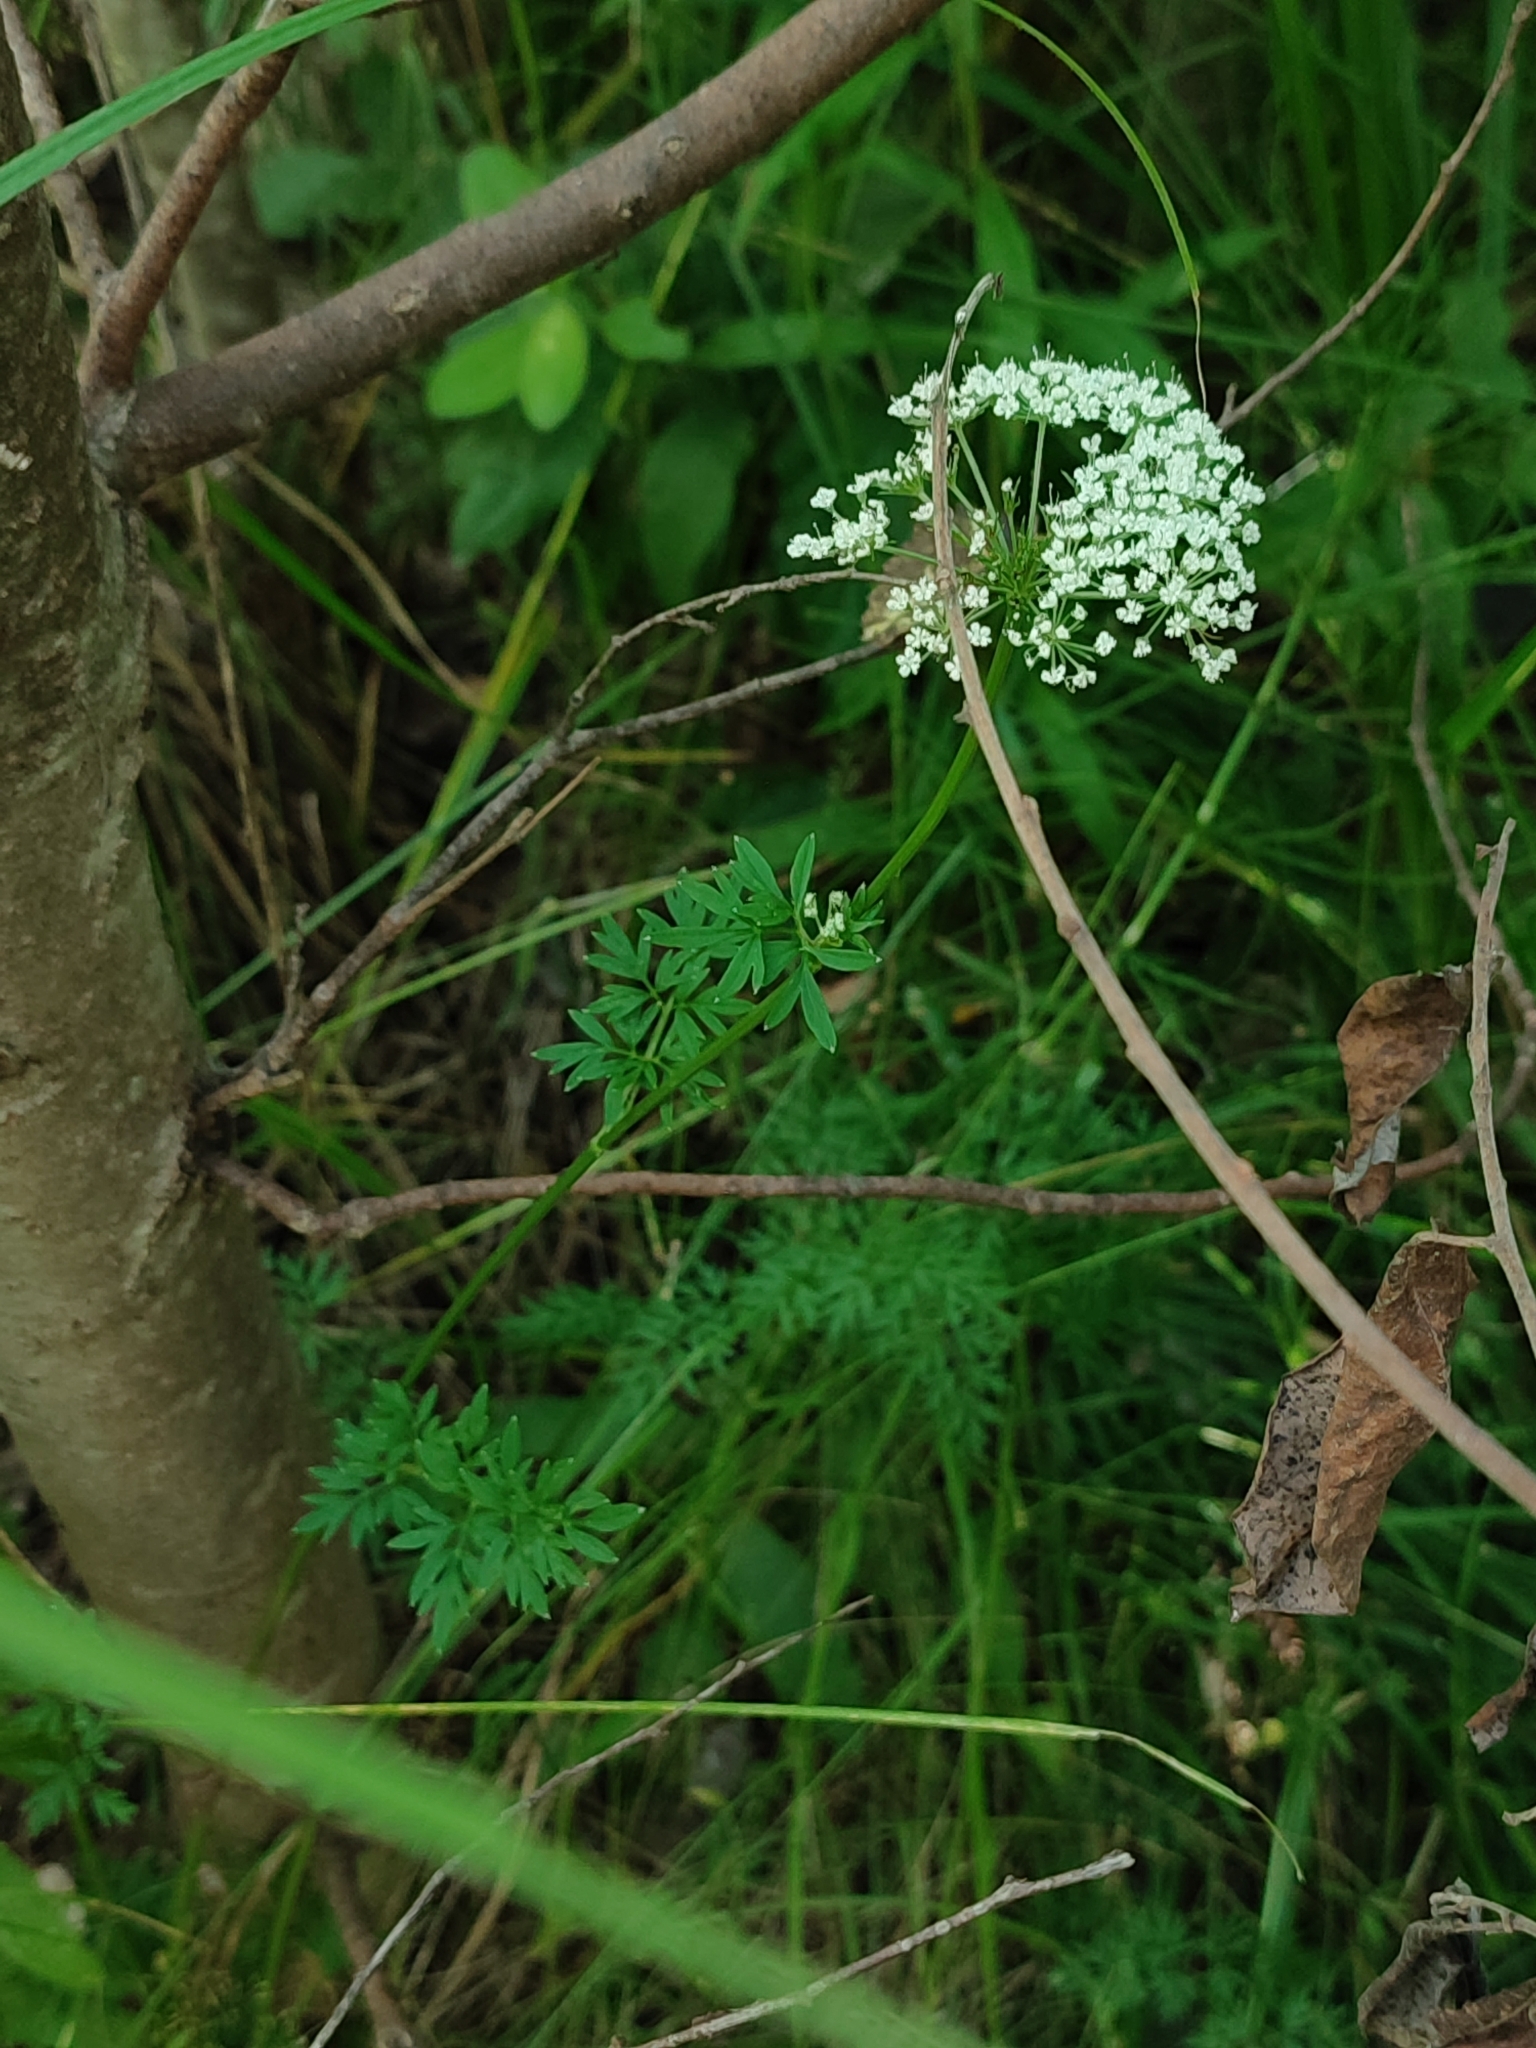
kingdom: Plantae
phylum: Tracheophyta
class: Magnoliopsida
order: Apiales
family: Apiaceae
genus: Selinum
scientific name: Selinum carvifolia
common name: Cambridge milk-parsley
